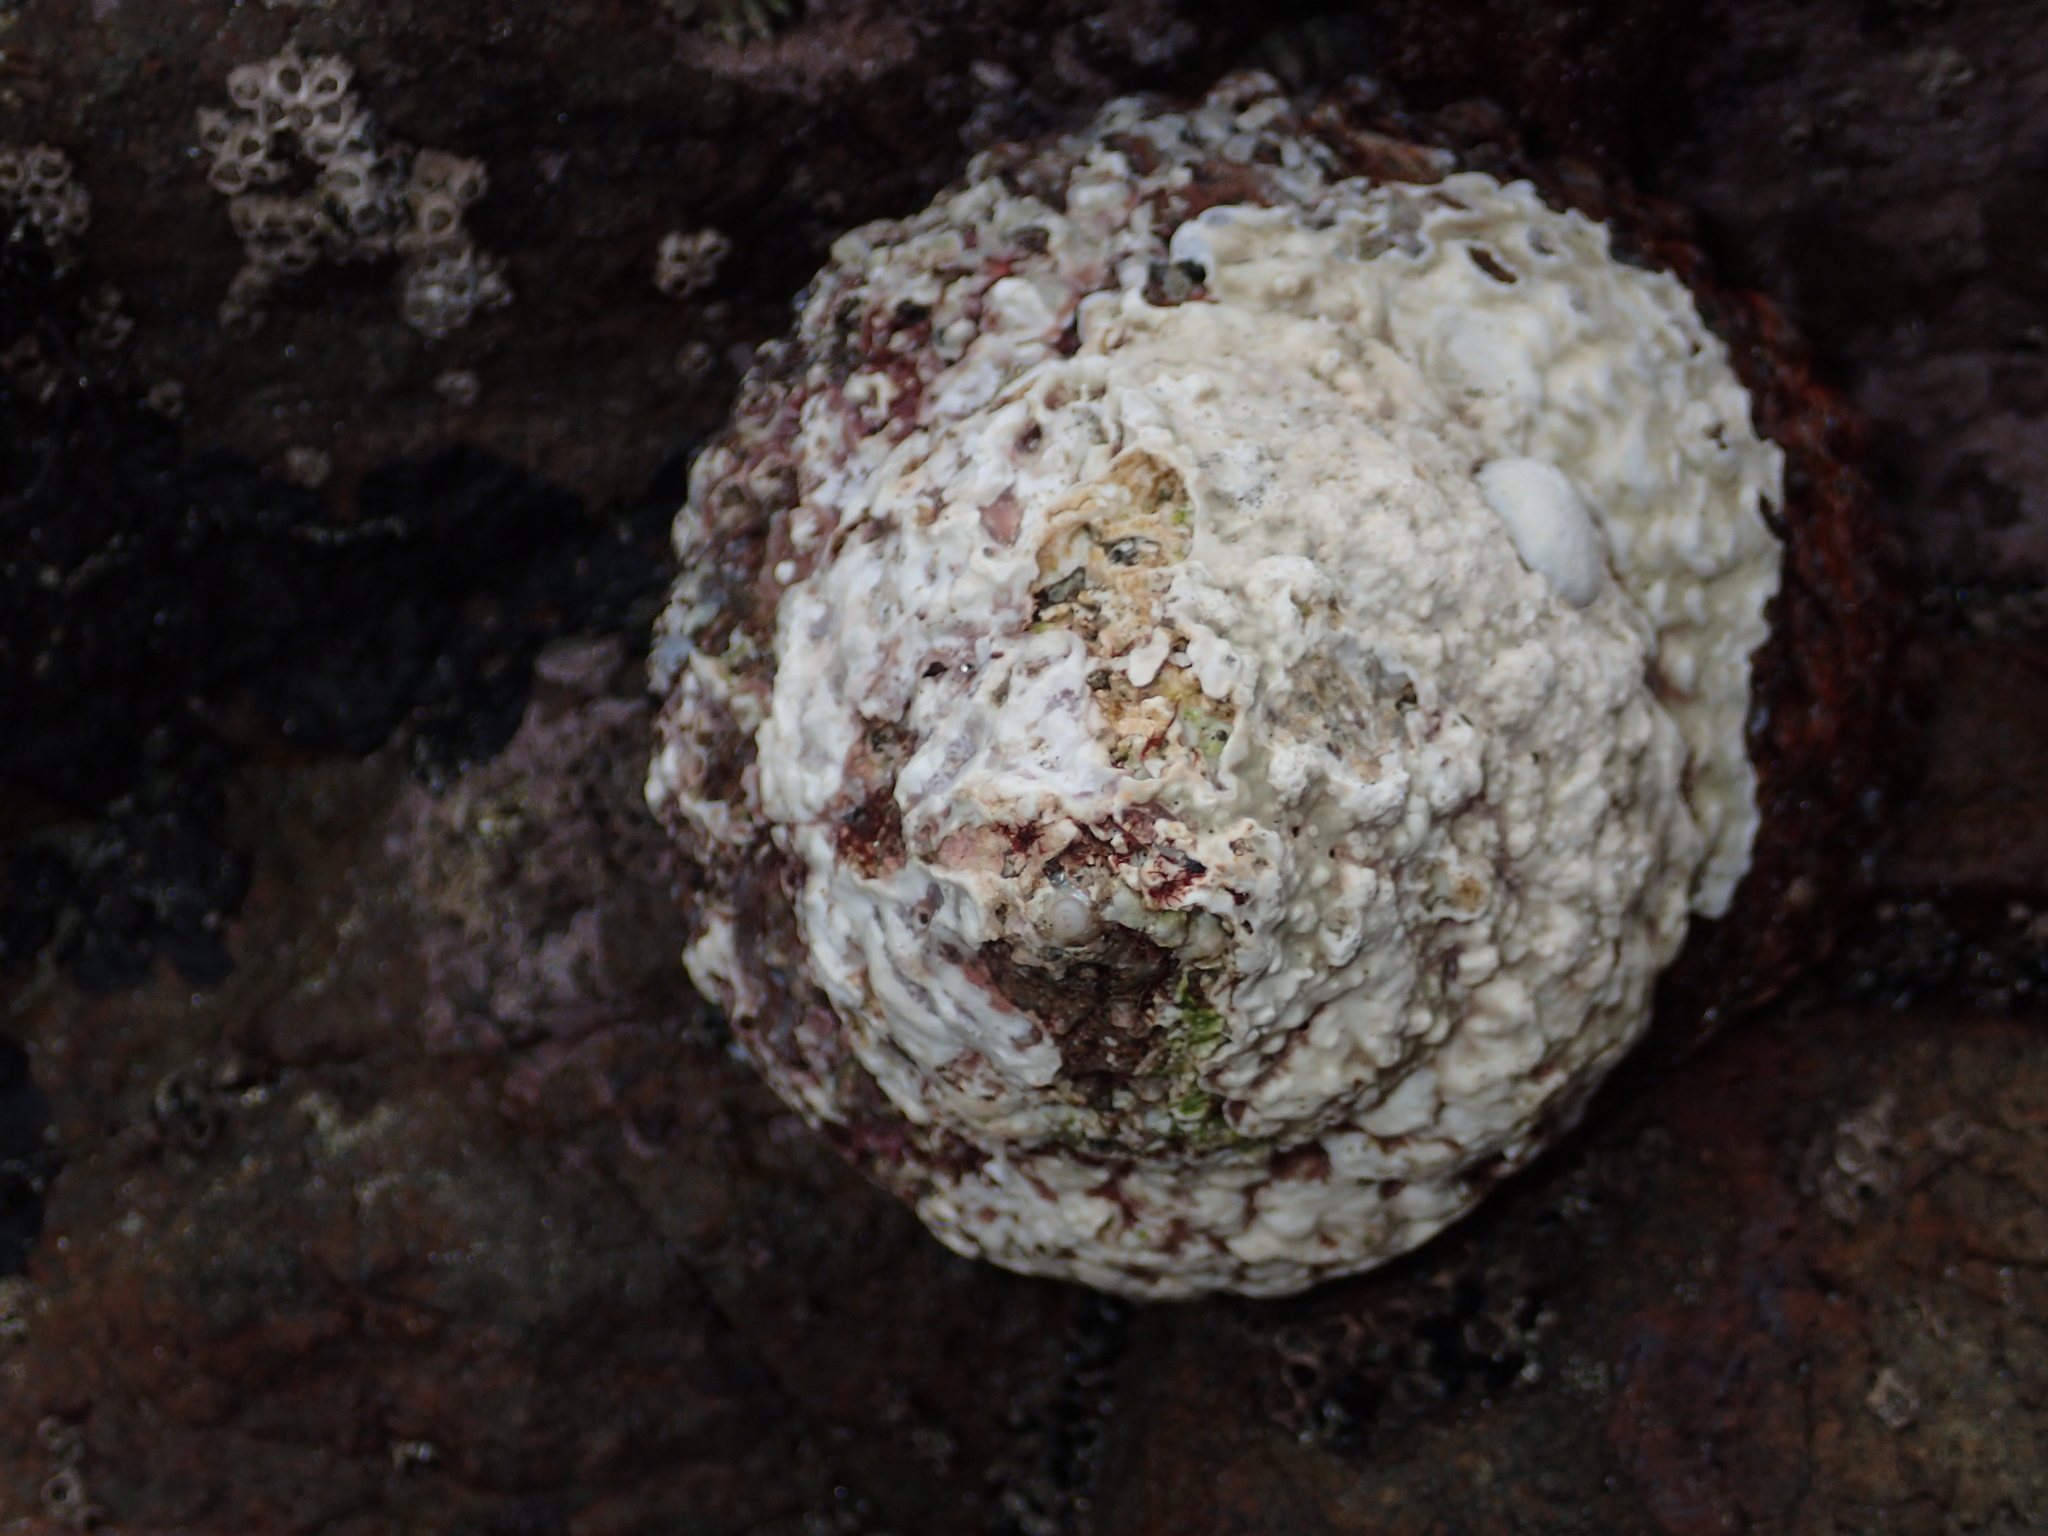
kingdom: Animalia
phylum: Mollusca
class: Gastropoda
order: Trochida
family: Turbinidae
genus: Cookia
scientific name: Cookia sulcata
